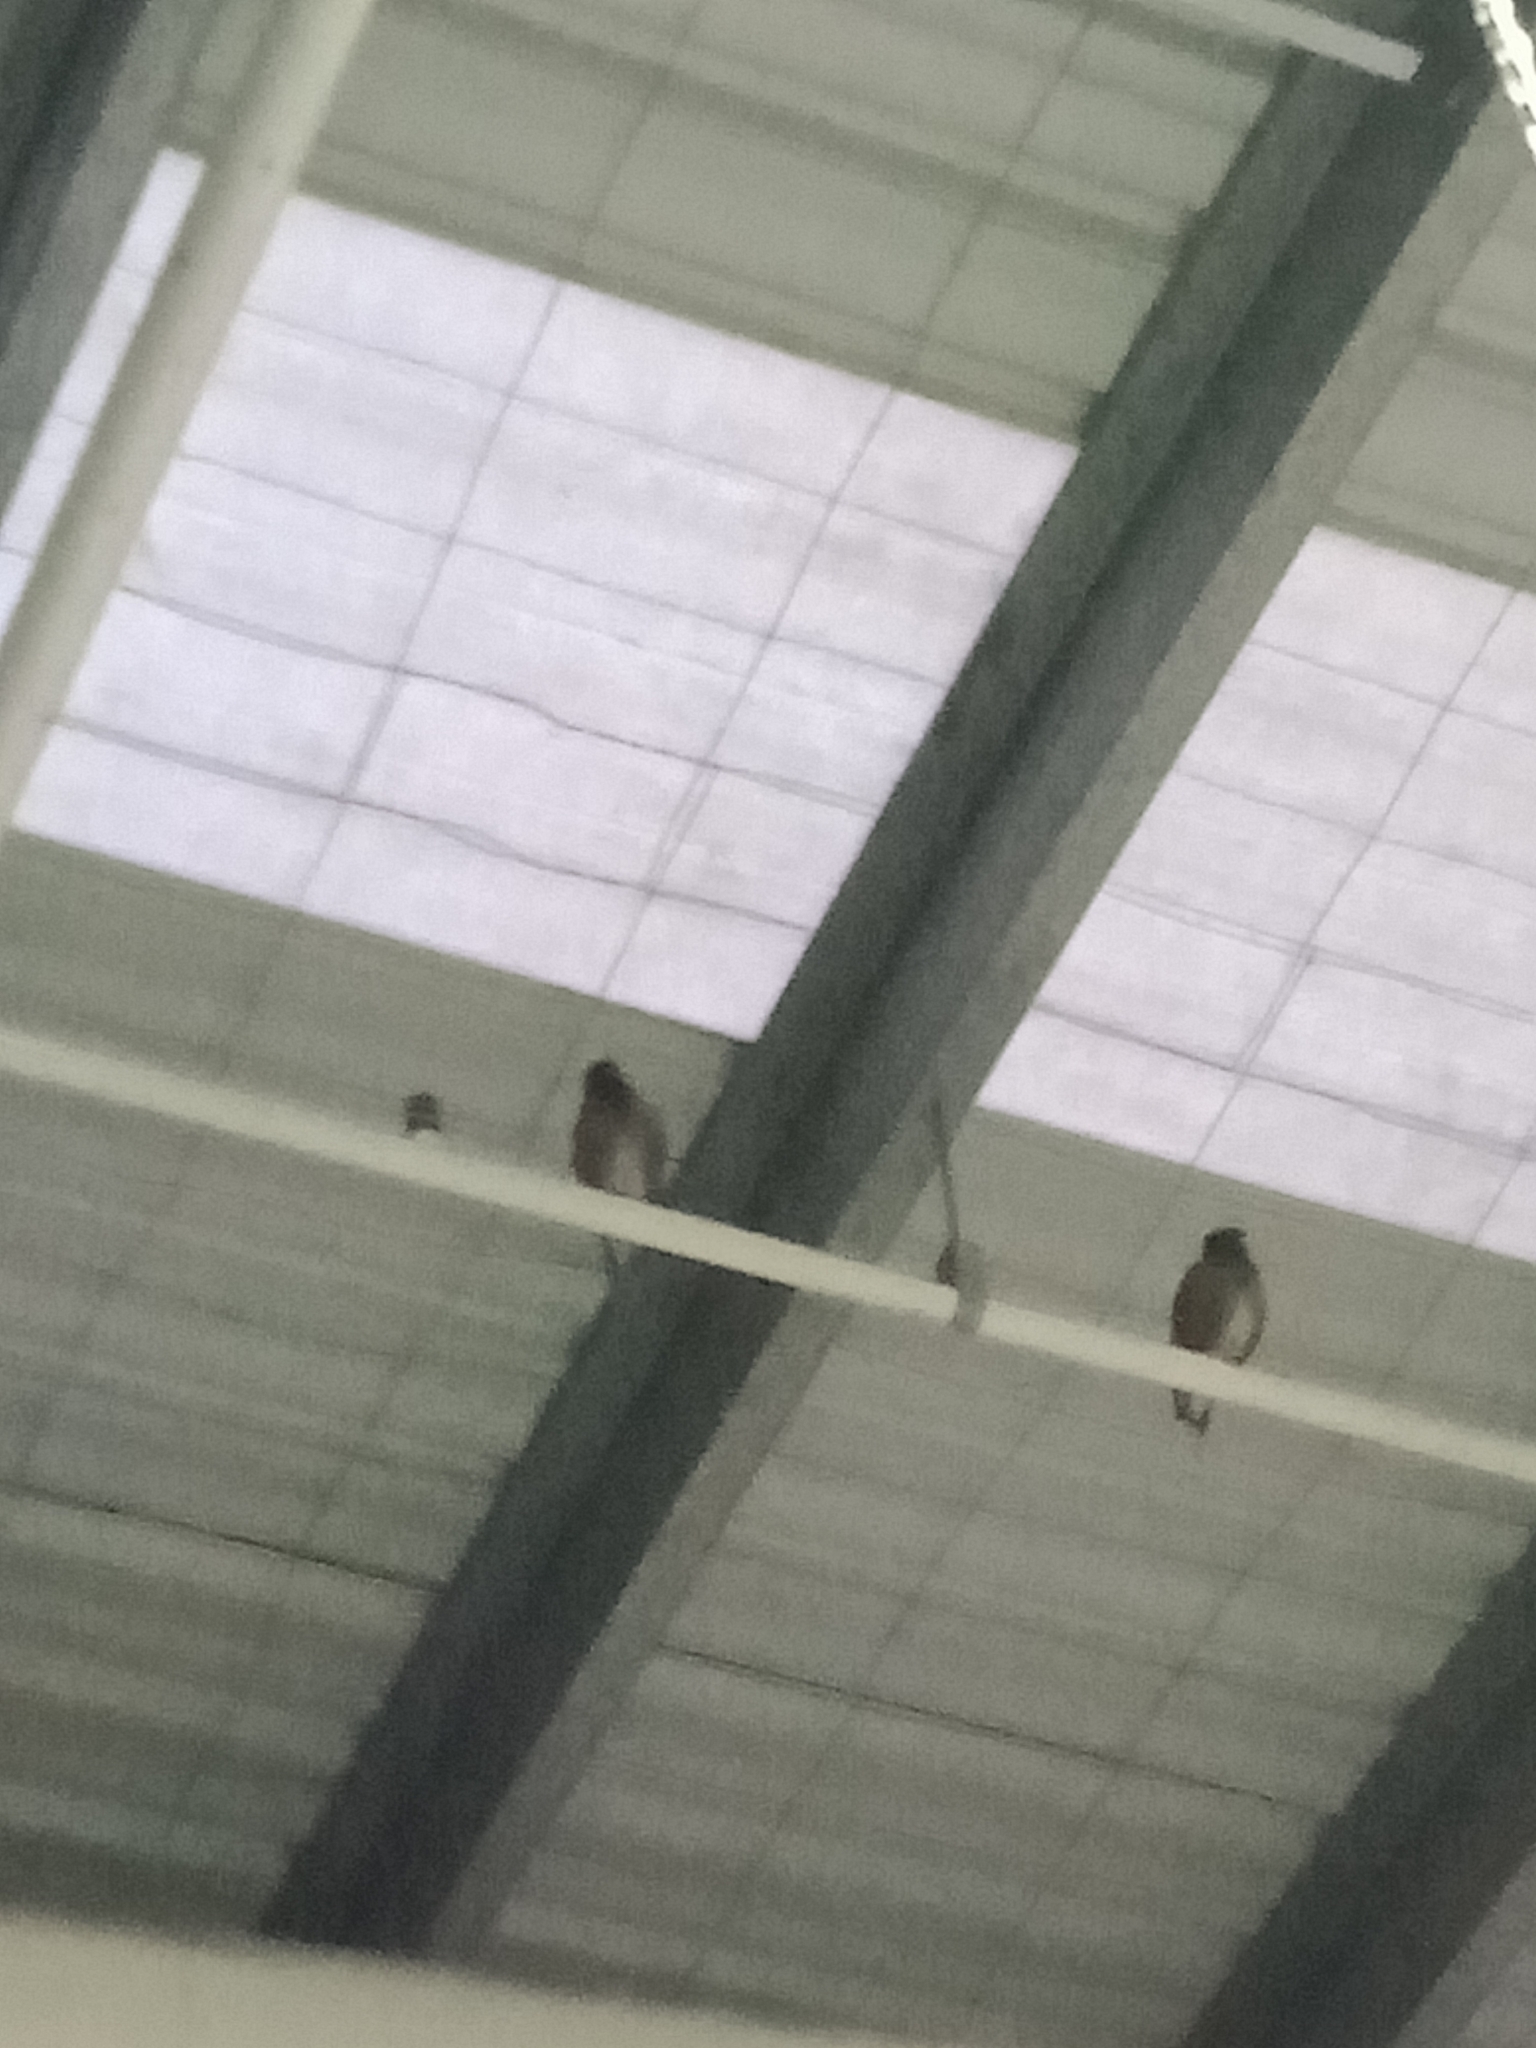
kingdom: Animalia
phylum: Chordata
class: Aves
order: Passeriformes
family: Sturnidae
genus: Acridotheres
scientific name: Acridotheres tristis
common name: Common myna
